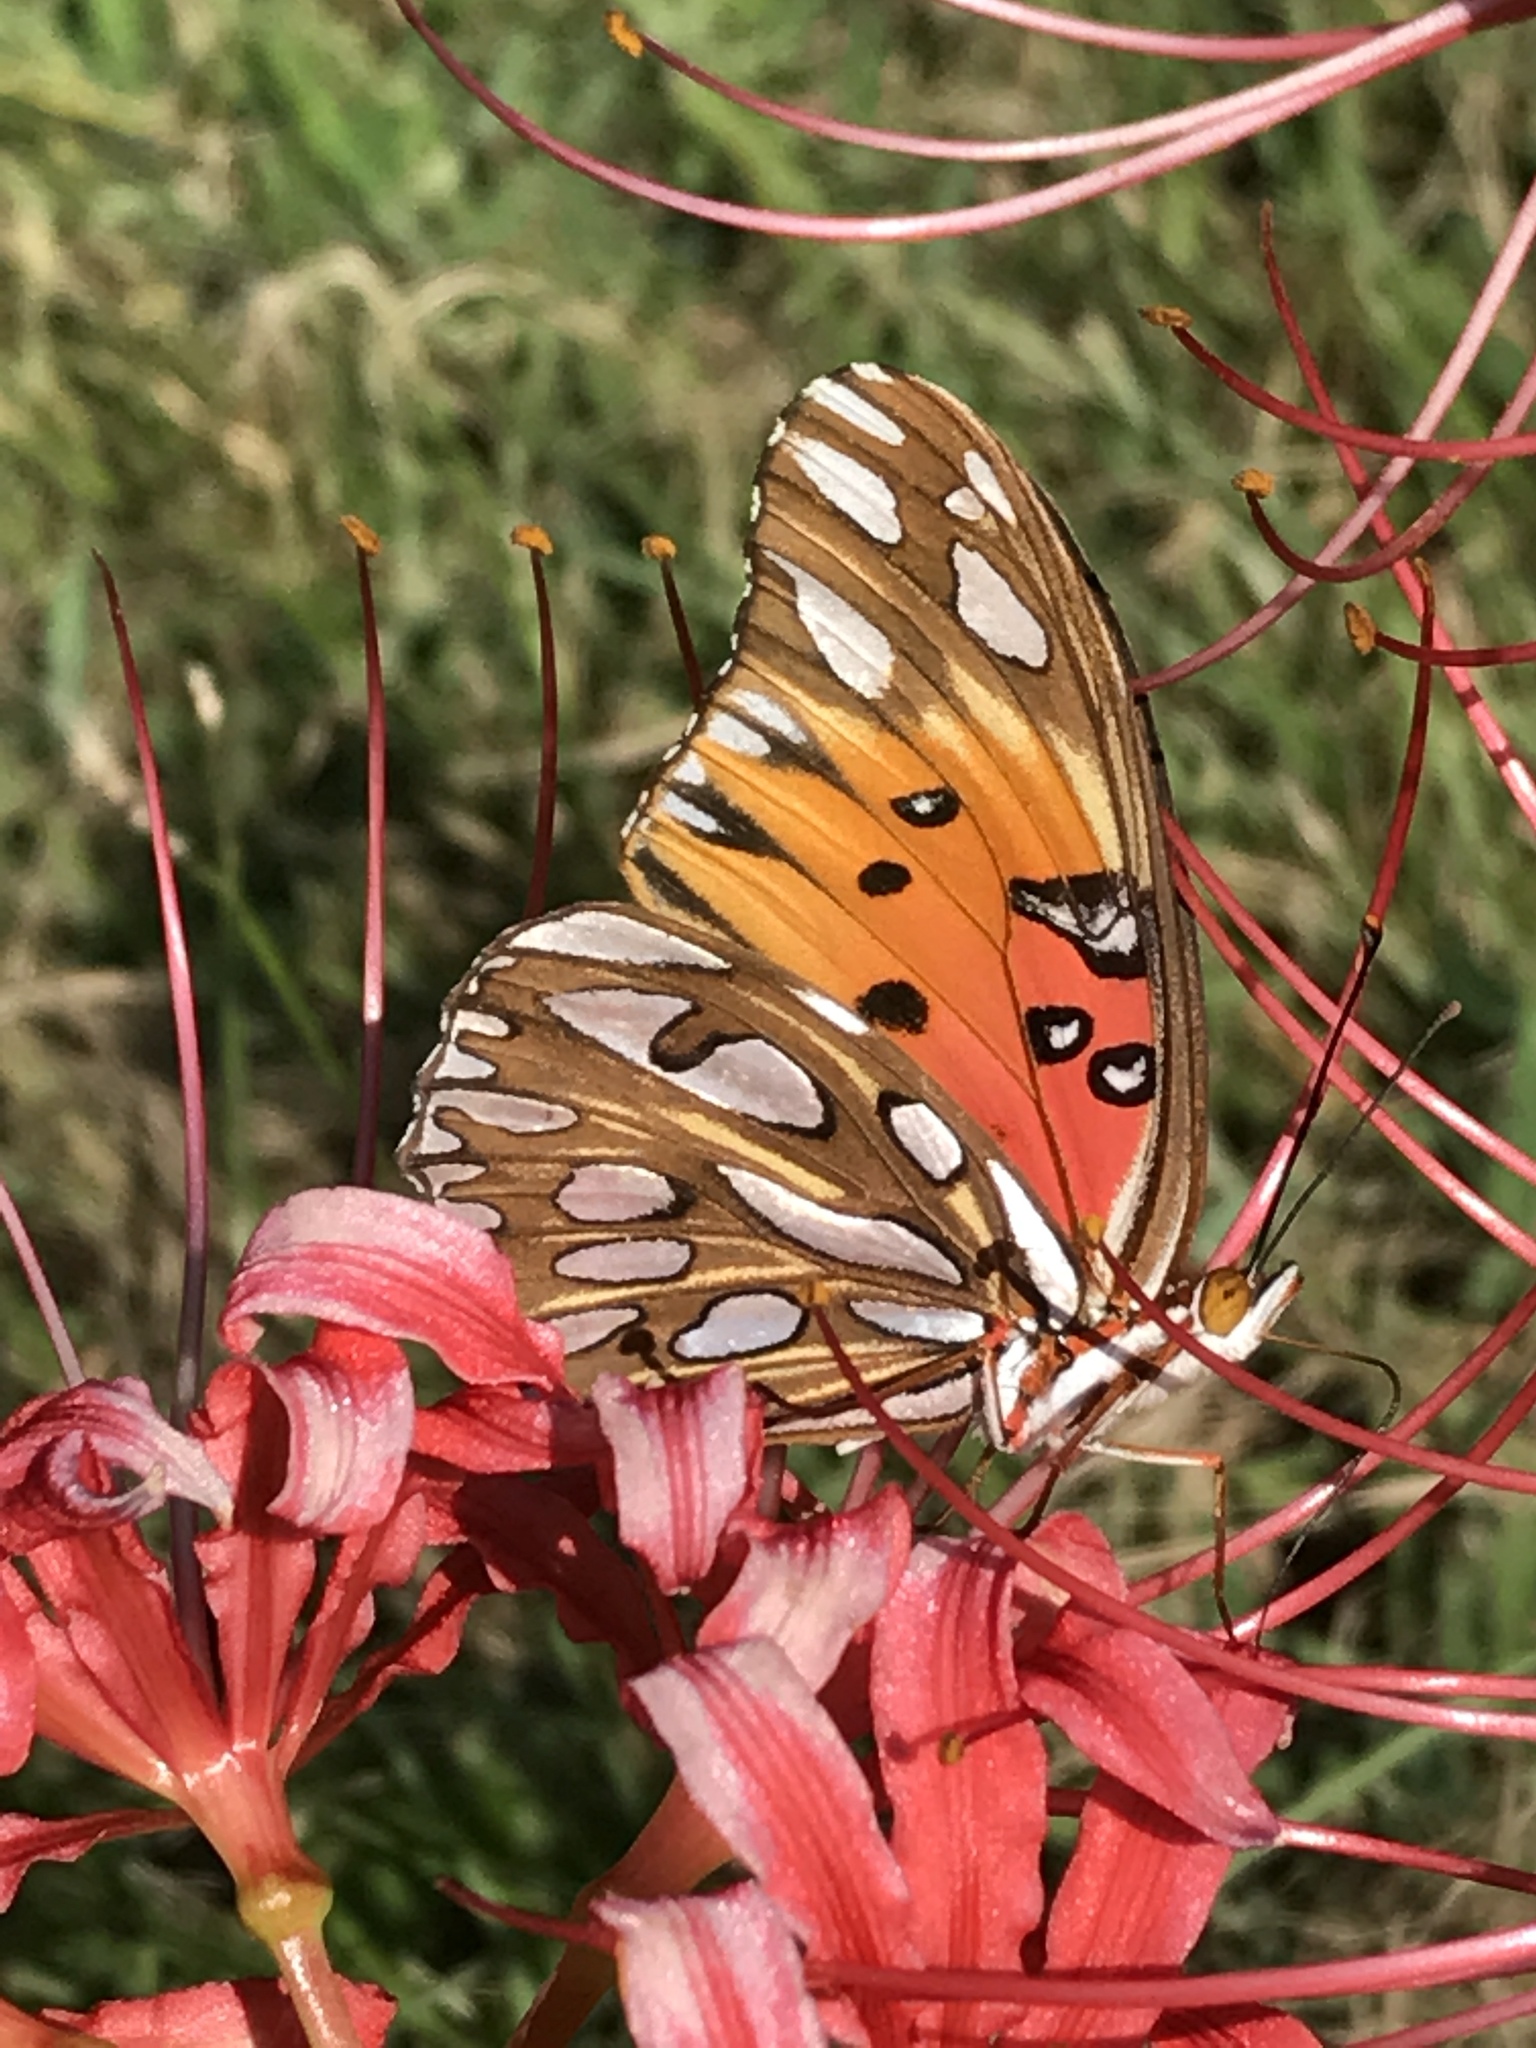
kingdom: Animalia
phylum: Arthropoda
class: Insecta
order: Lepidoptera
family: Nymphalidae
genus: Dione
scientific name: Dione vanillae
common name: Gulf fritillary
